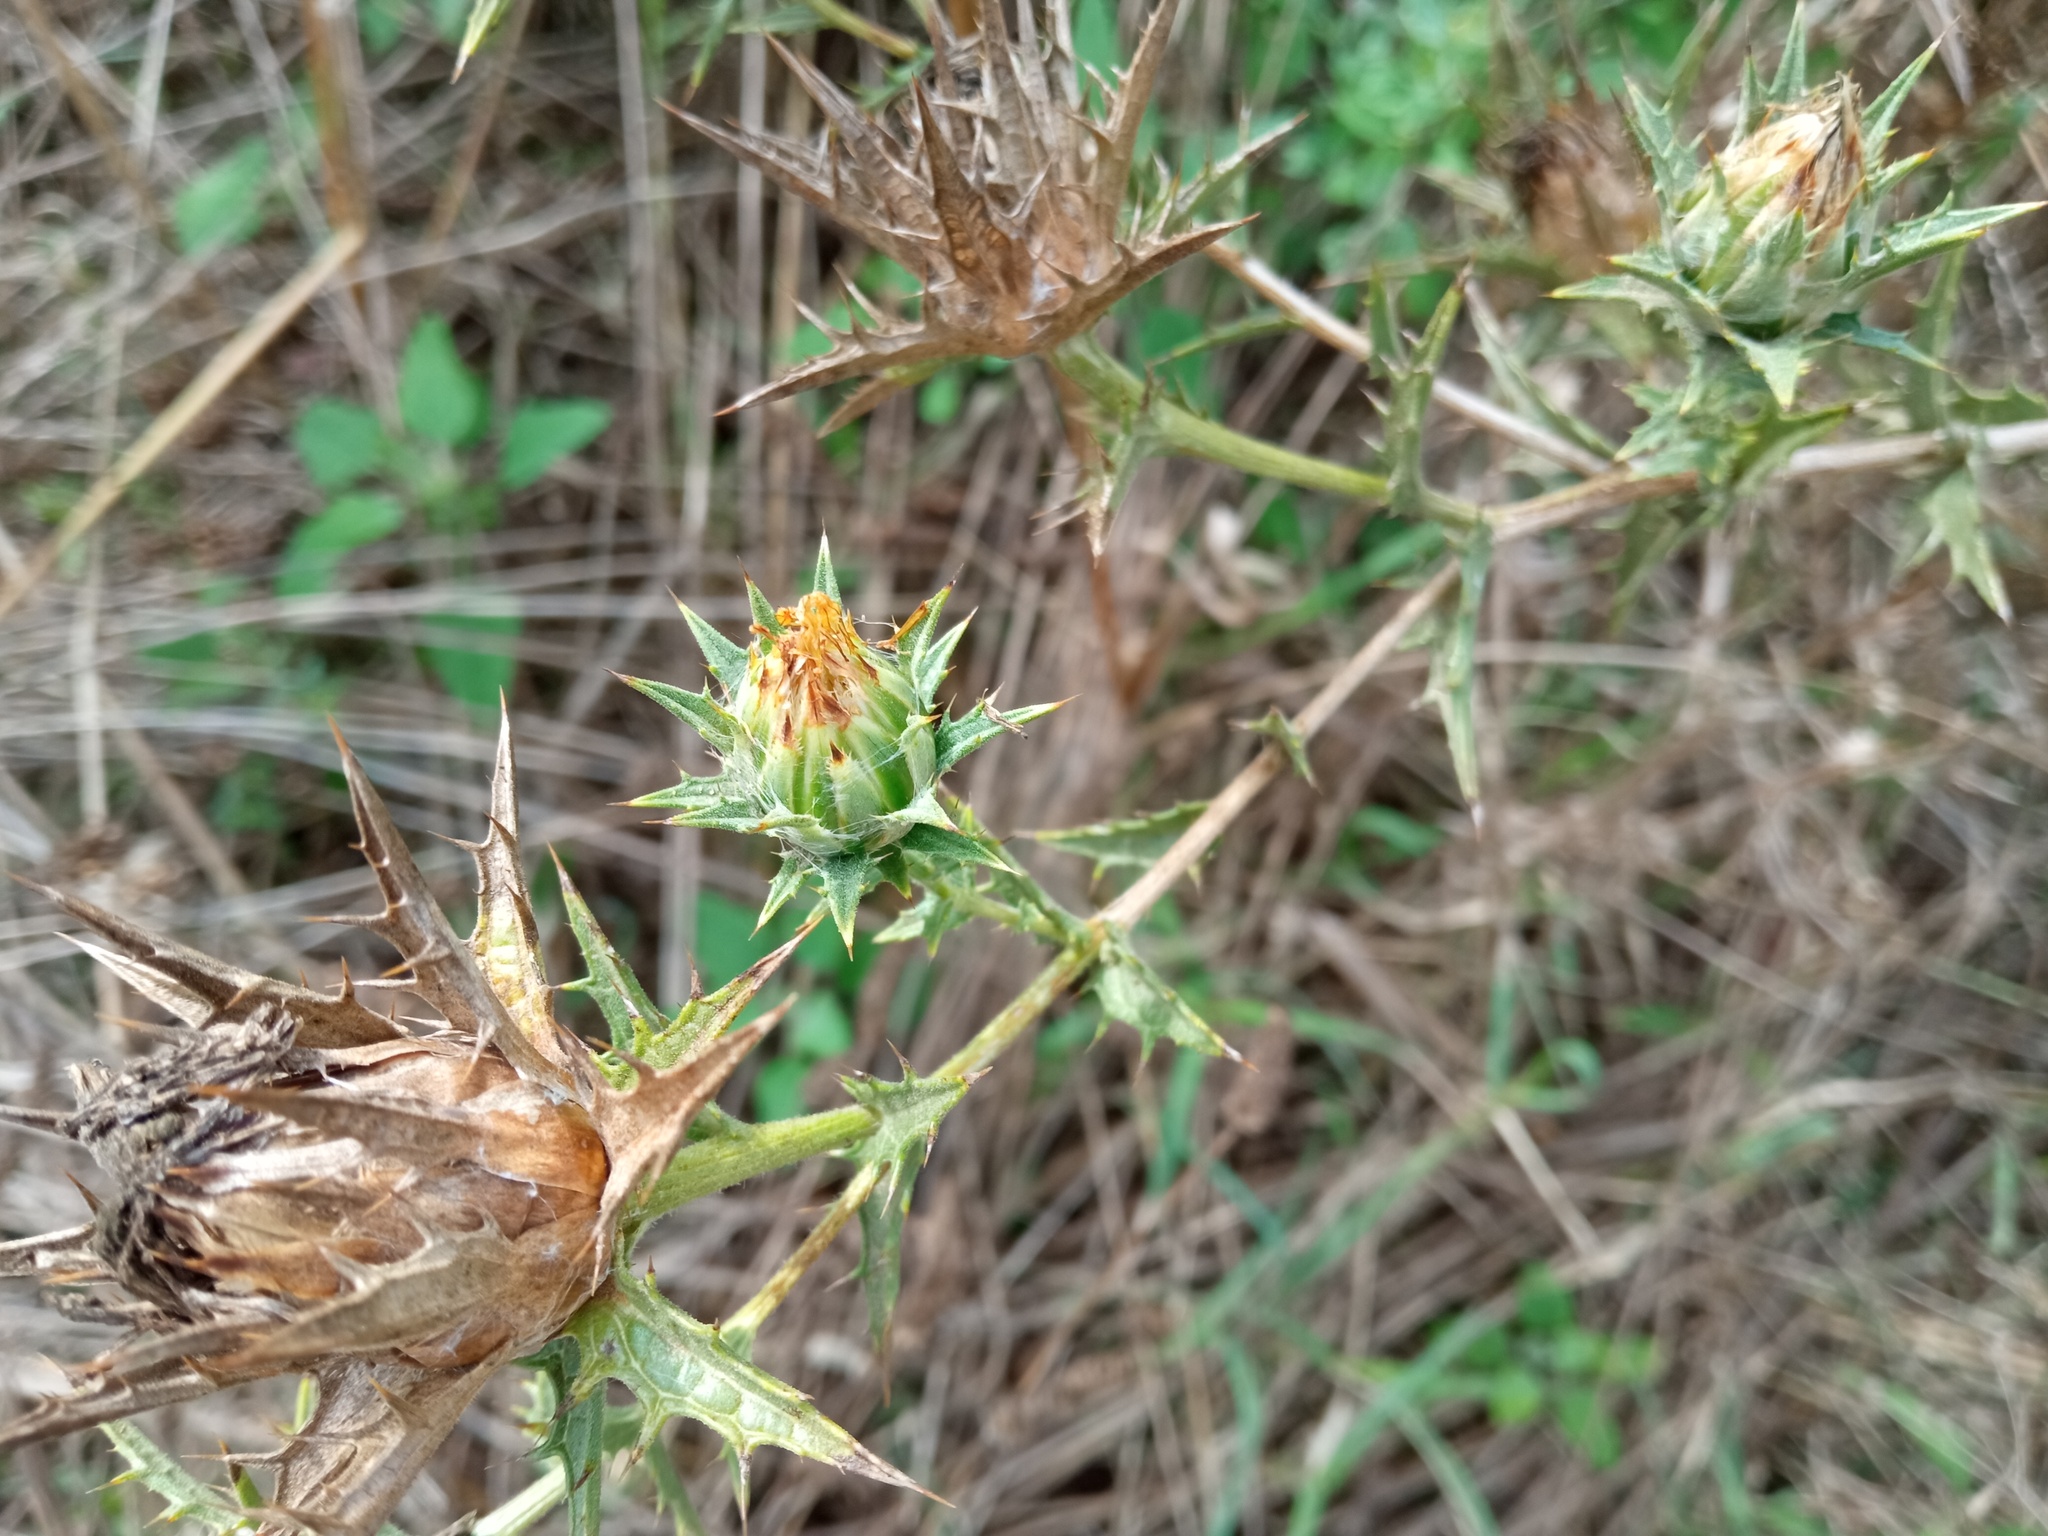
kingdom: Plantae
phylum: Tracheophyta
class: Magnoliopsida
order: Asterales
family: Asteraceae
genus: Carthamus
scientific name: Carthamus lanatus
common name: Downy safflower
